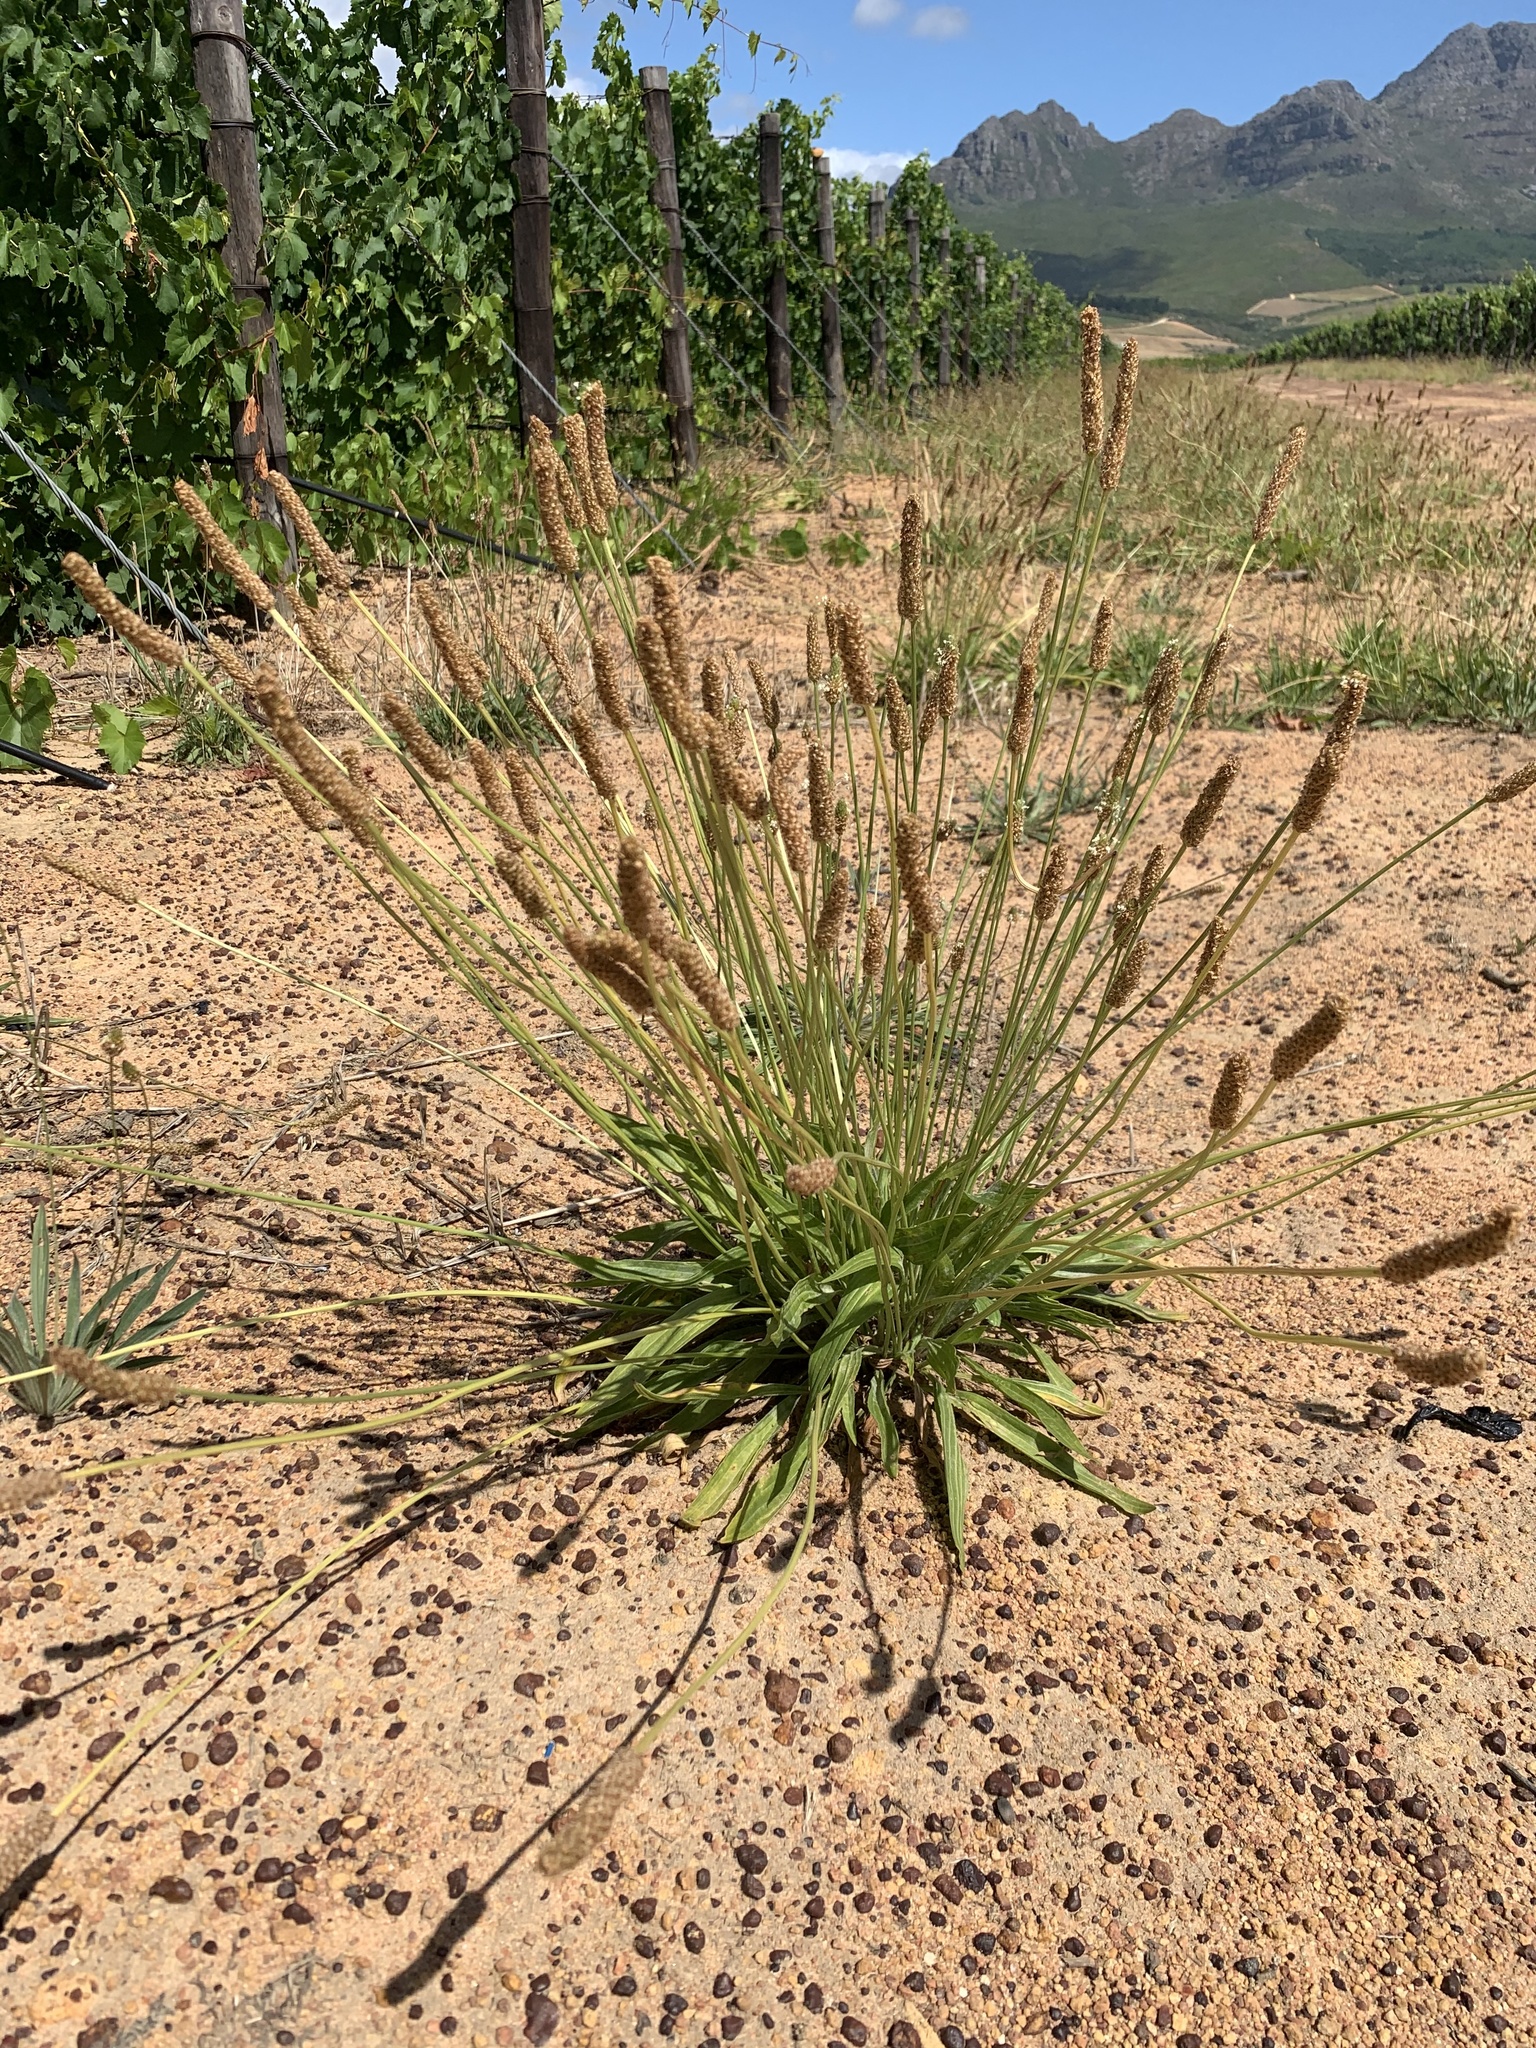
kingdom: Plantae
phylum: Tracheophyta
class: Magnoliopsida
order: Lamiales
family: Plantaginaceae
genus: Plantago
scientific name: Plantago lanceolata
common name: Ribwort plantain
